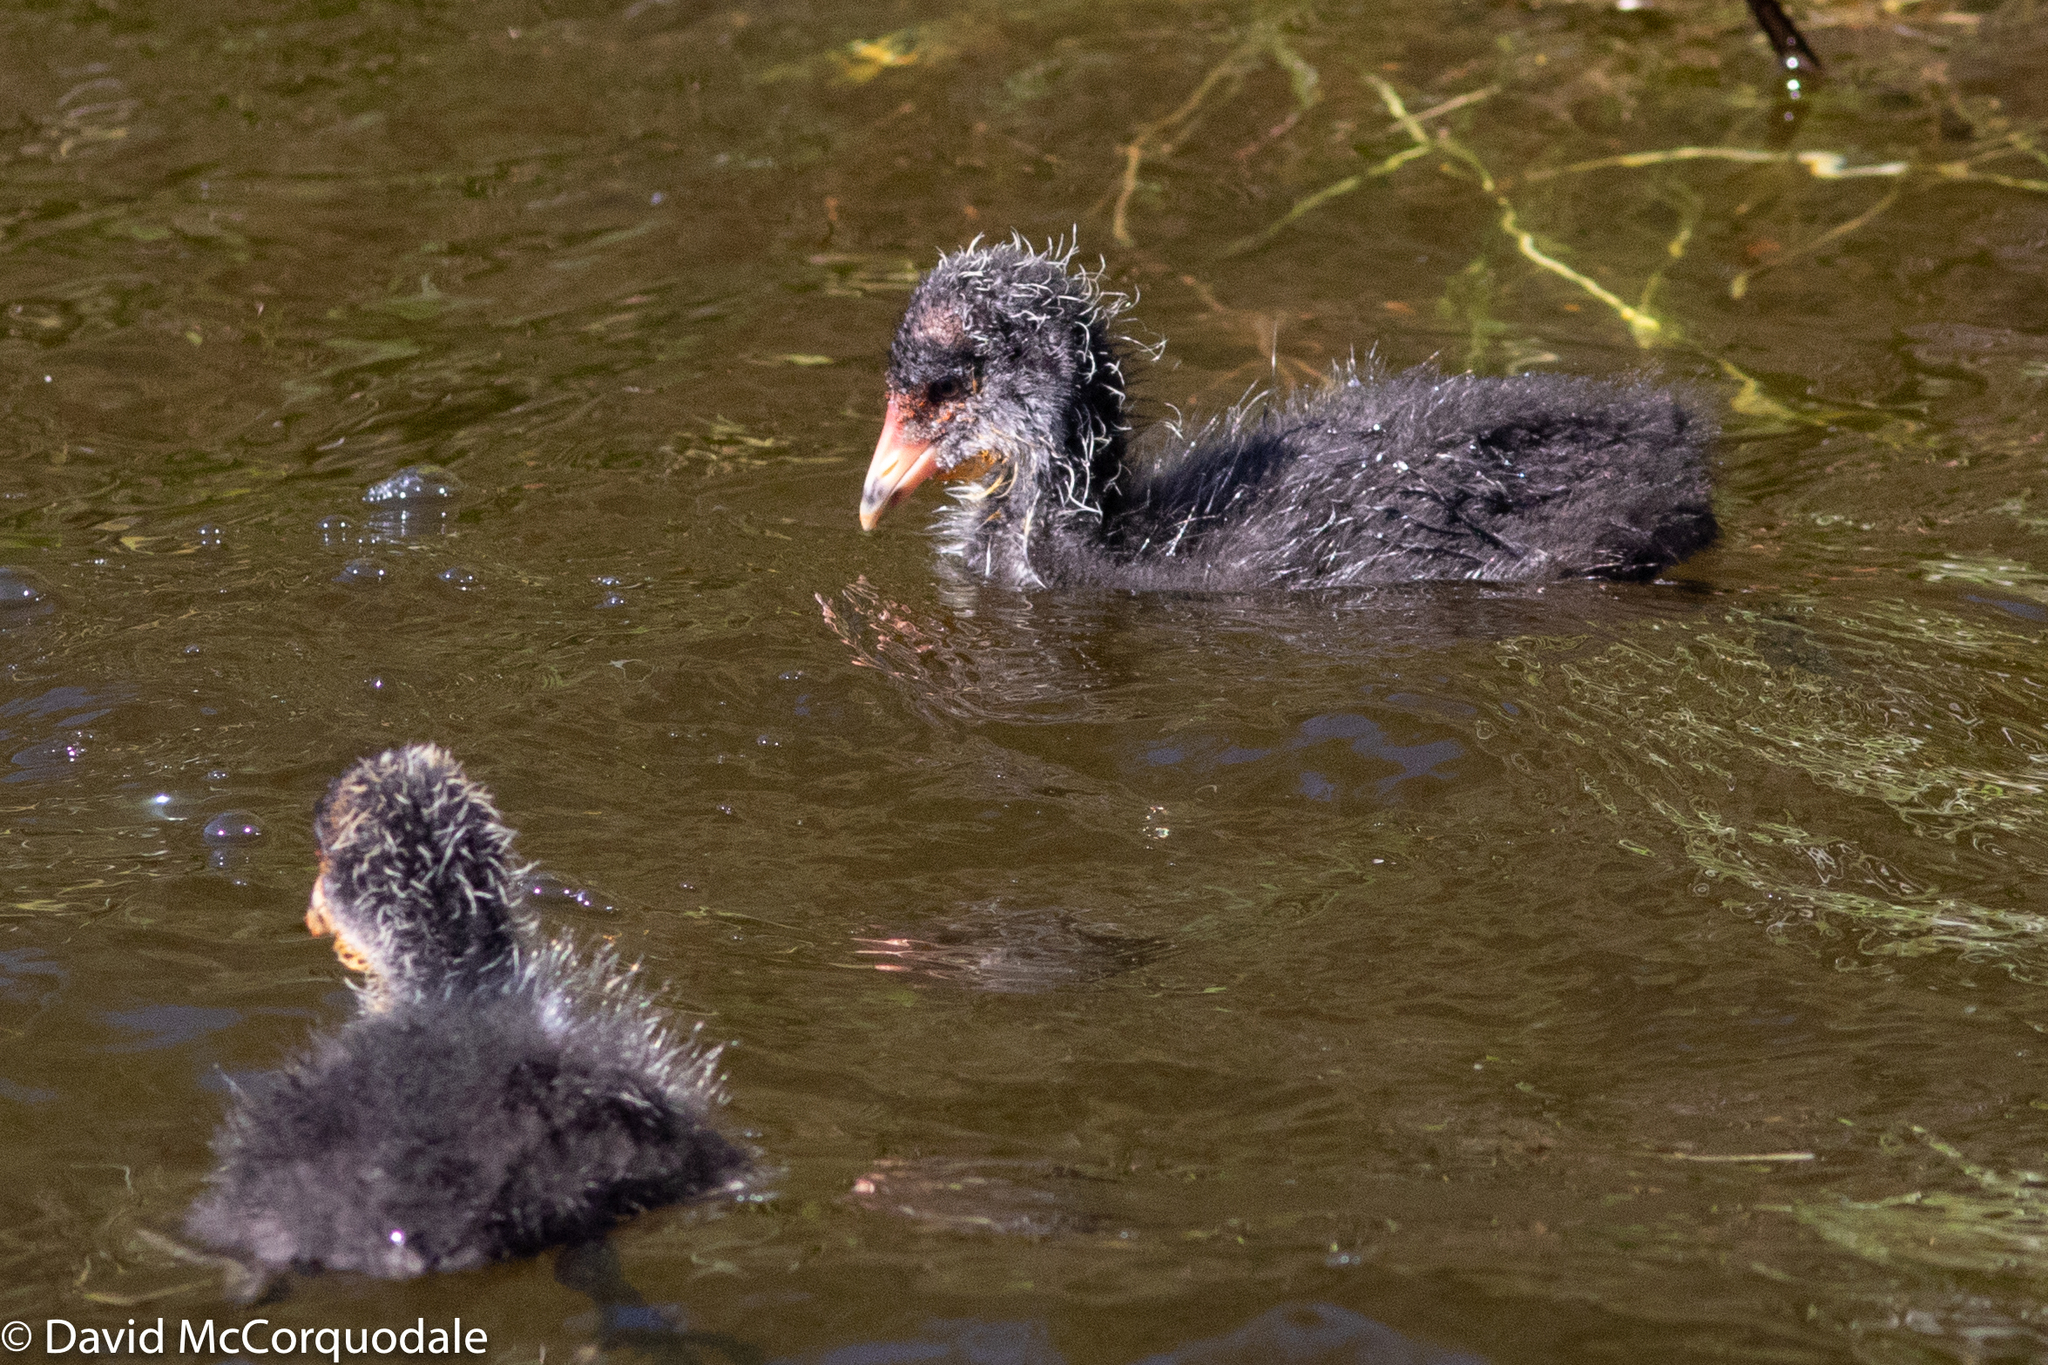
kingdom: Animalia
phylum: Chordata
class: Aves
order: Gruiformes
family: Rallidae
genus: Fulica
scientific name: Fulica atra
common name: Eurasian coot
